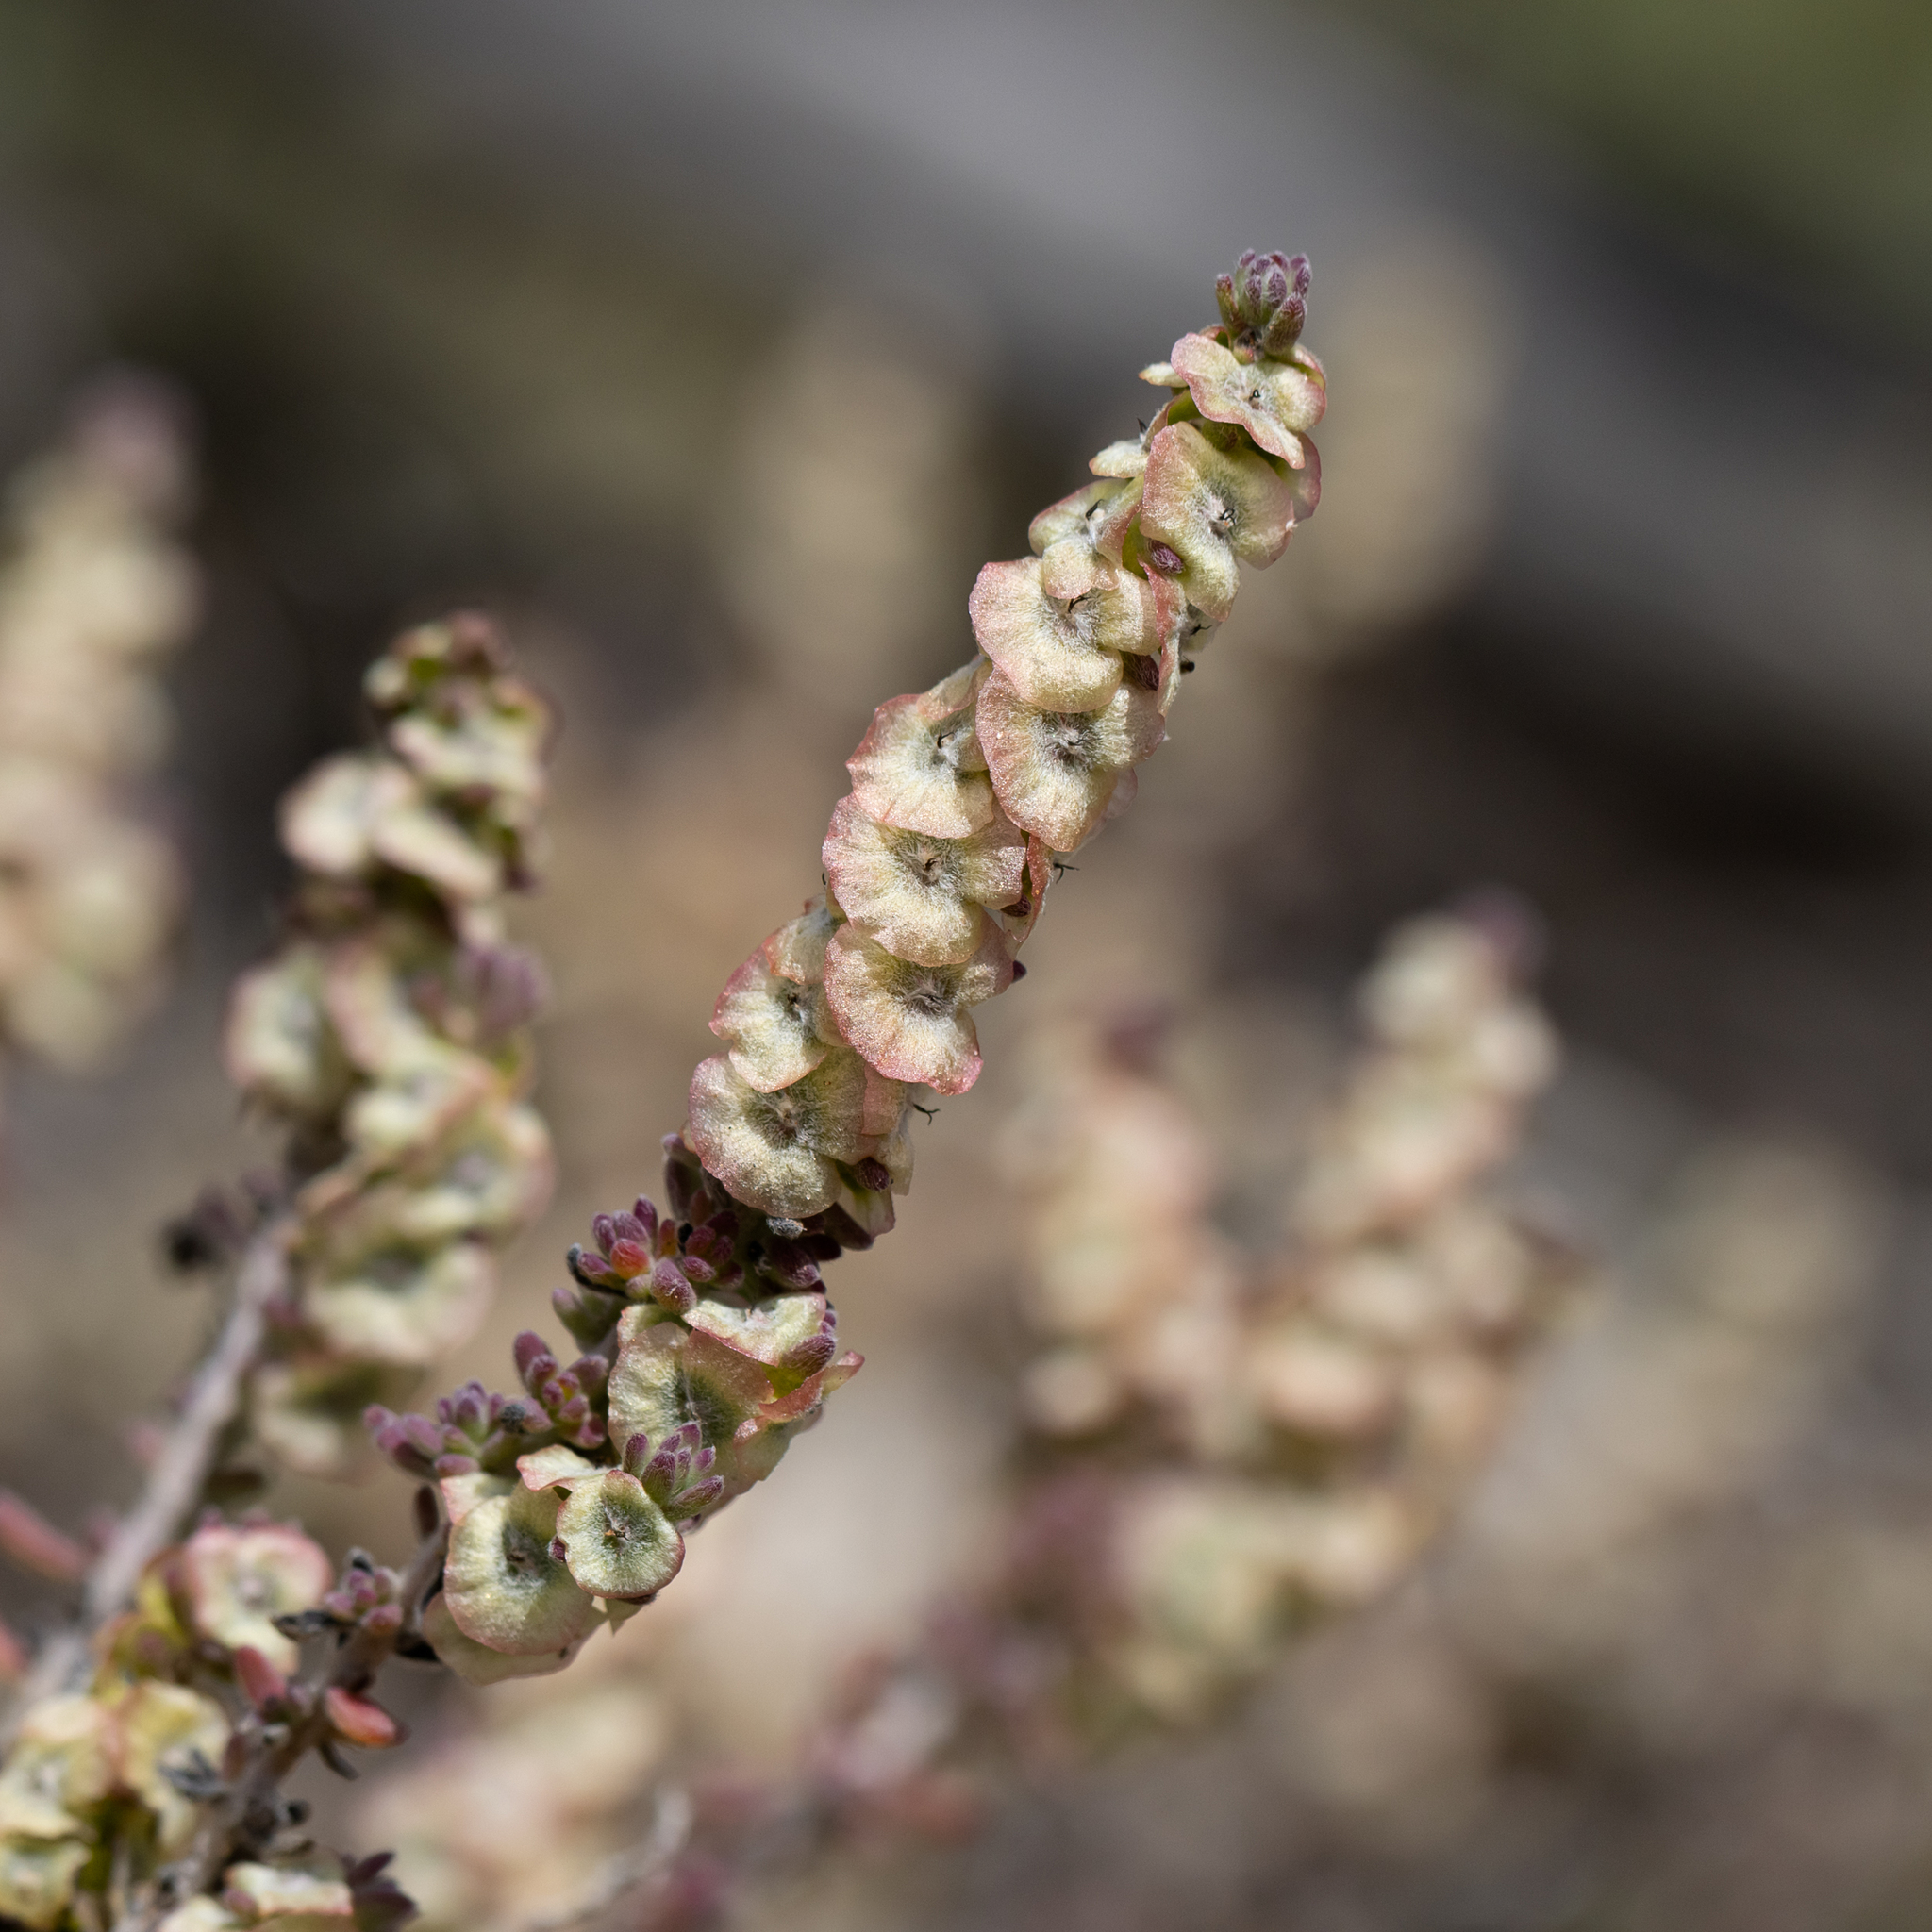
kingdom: Plantae
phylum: Tracheophyta
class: Magnoliopsida
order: Caryophyllales
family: Amaranthaceae
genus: Maireana
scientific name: Maireana trichoptera
